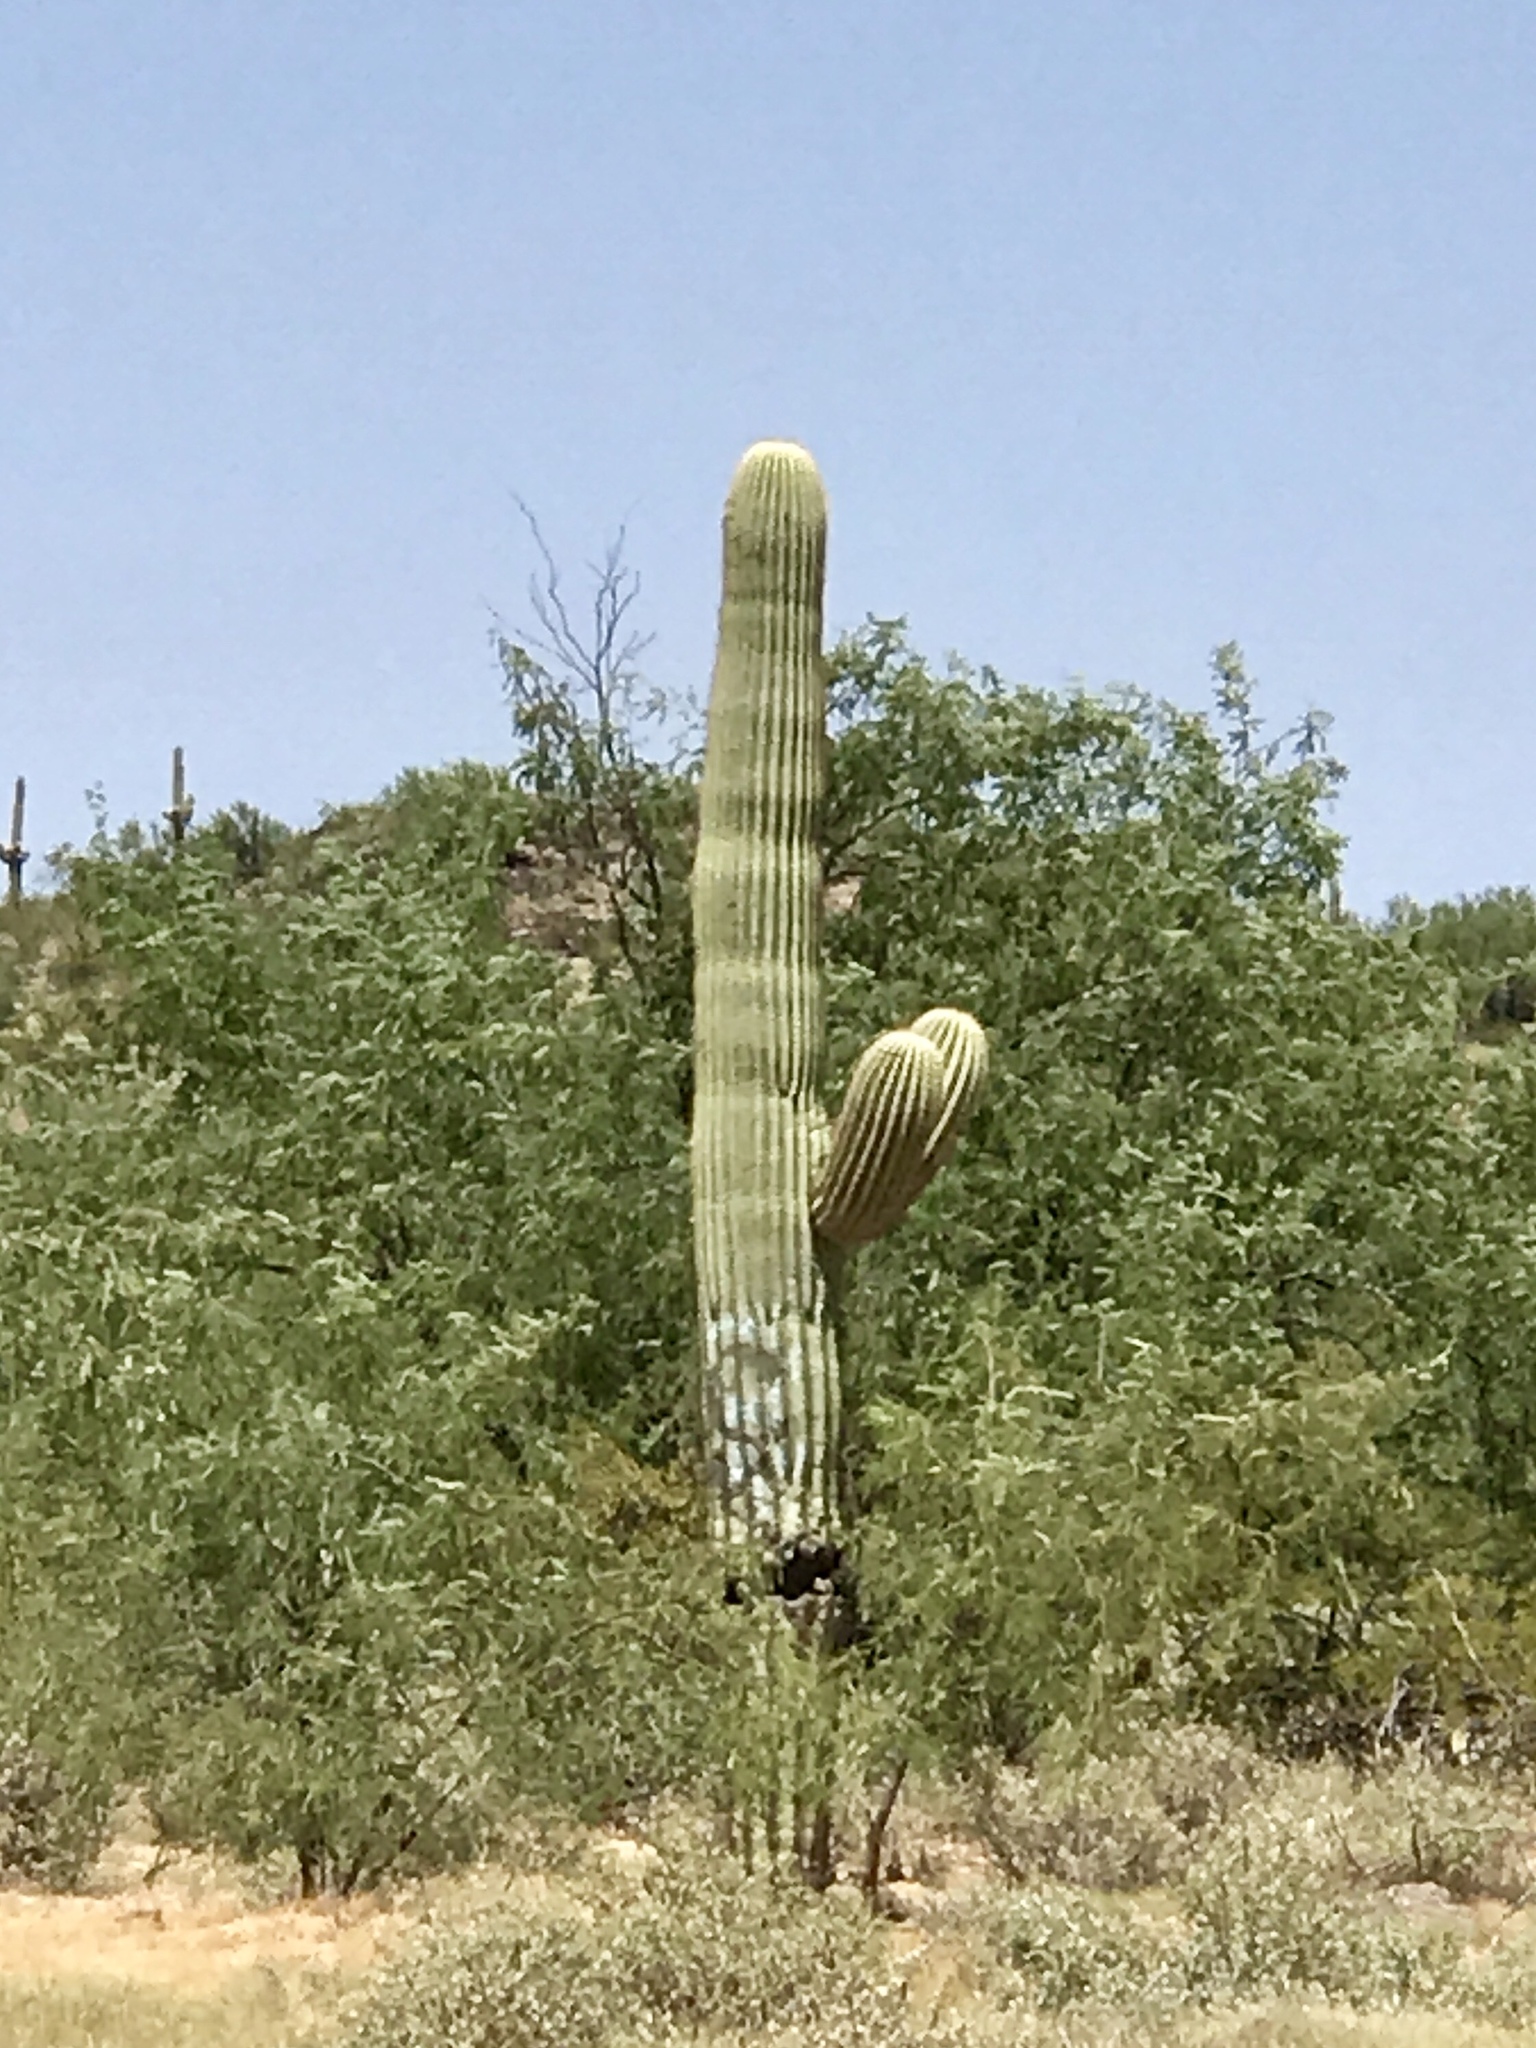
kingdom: Plantae
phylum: Tracheophyta
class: Magnoliopsida
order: Caryophyllales
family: Cactaceae
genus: Carnegiea
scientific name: Carnegiea gigantea
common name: Saguaro
